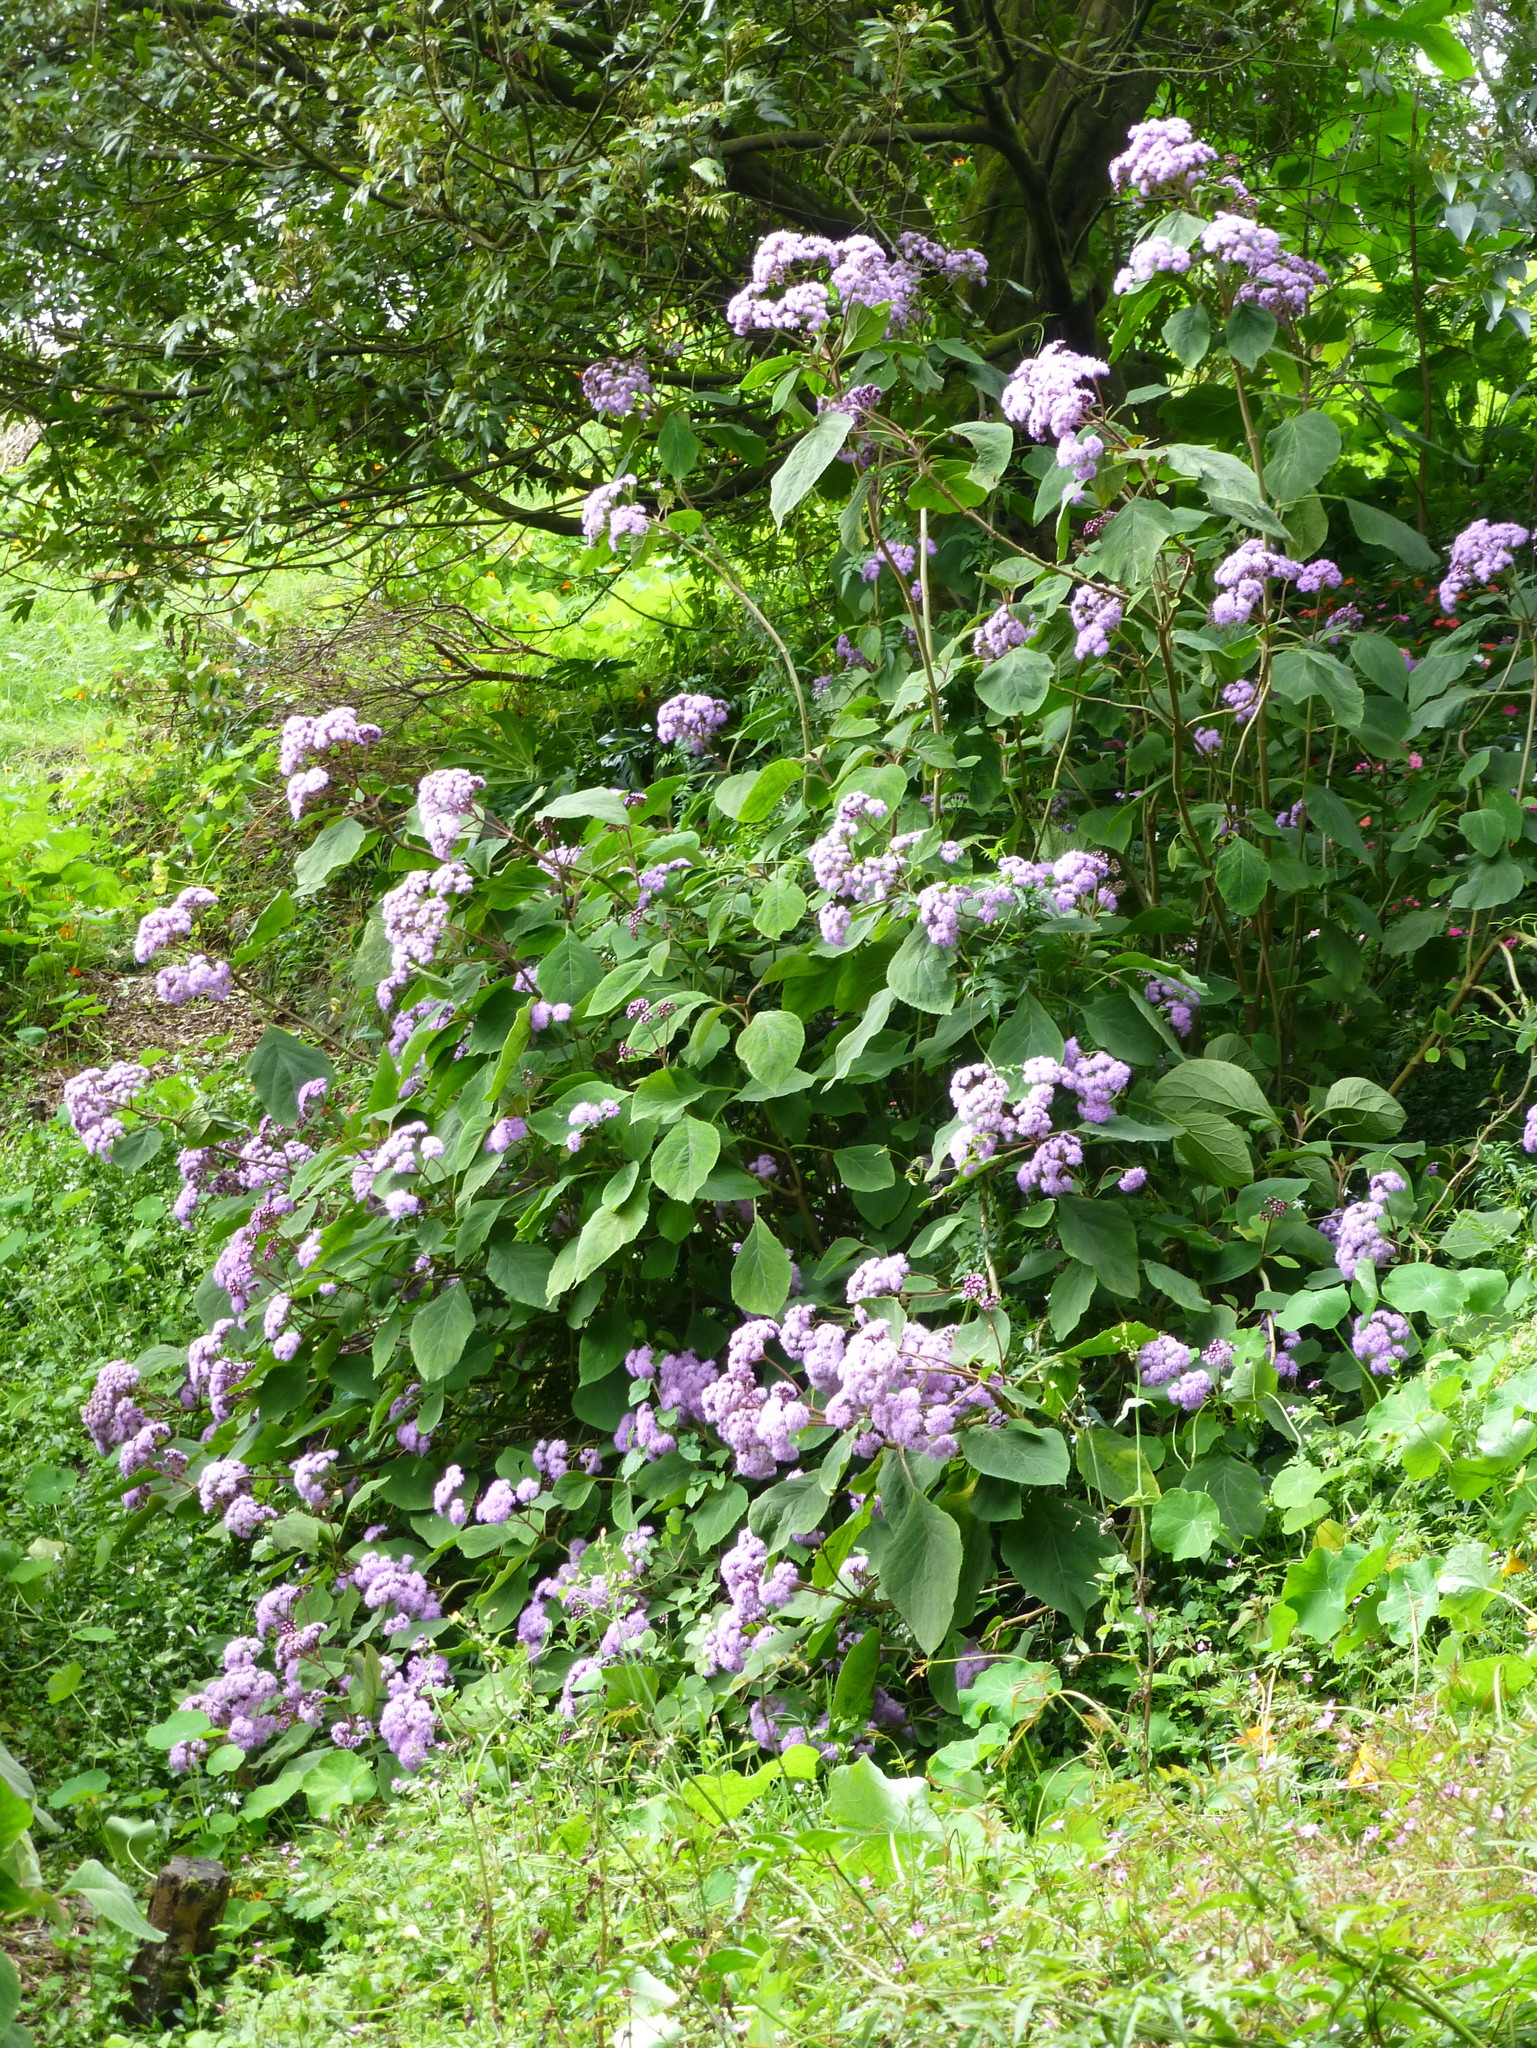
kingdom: Plantae
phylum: Tracheophyta
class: Magnoliopsida
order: Asterales
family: Asteraceae
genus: Bartlettina
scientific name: Bartlettina sordida
